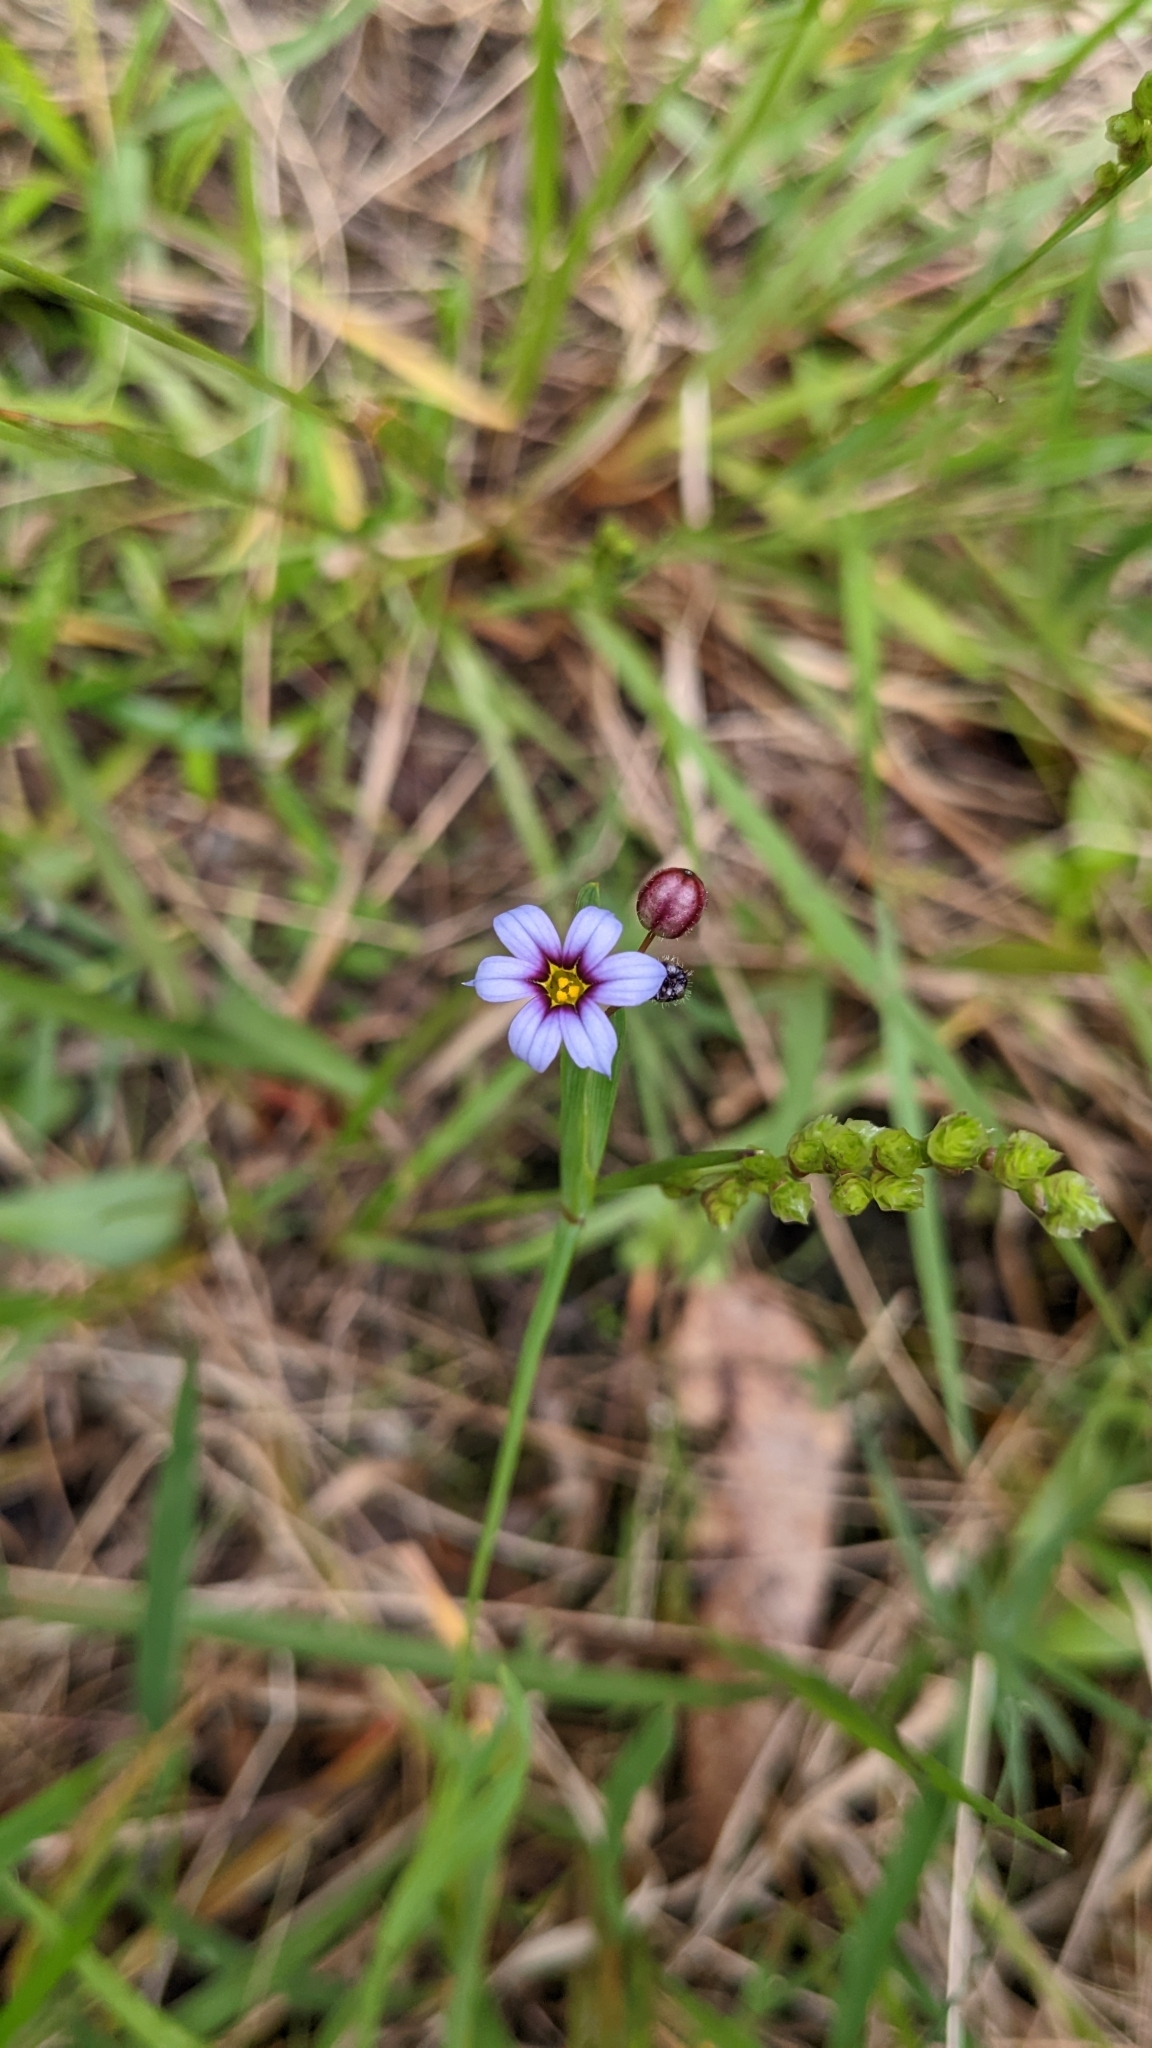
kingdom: Plantae
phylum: Tracheophyta
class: Liliopsida
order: Asparagales
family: Iridaceae
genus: Sisyrinchium
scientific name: Sisyrinchium micranthum
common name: Bermuda pigroot
